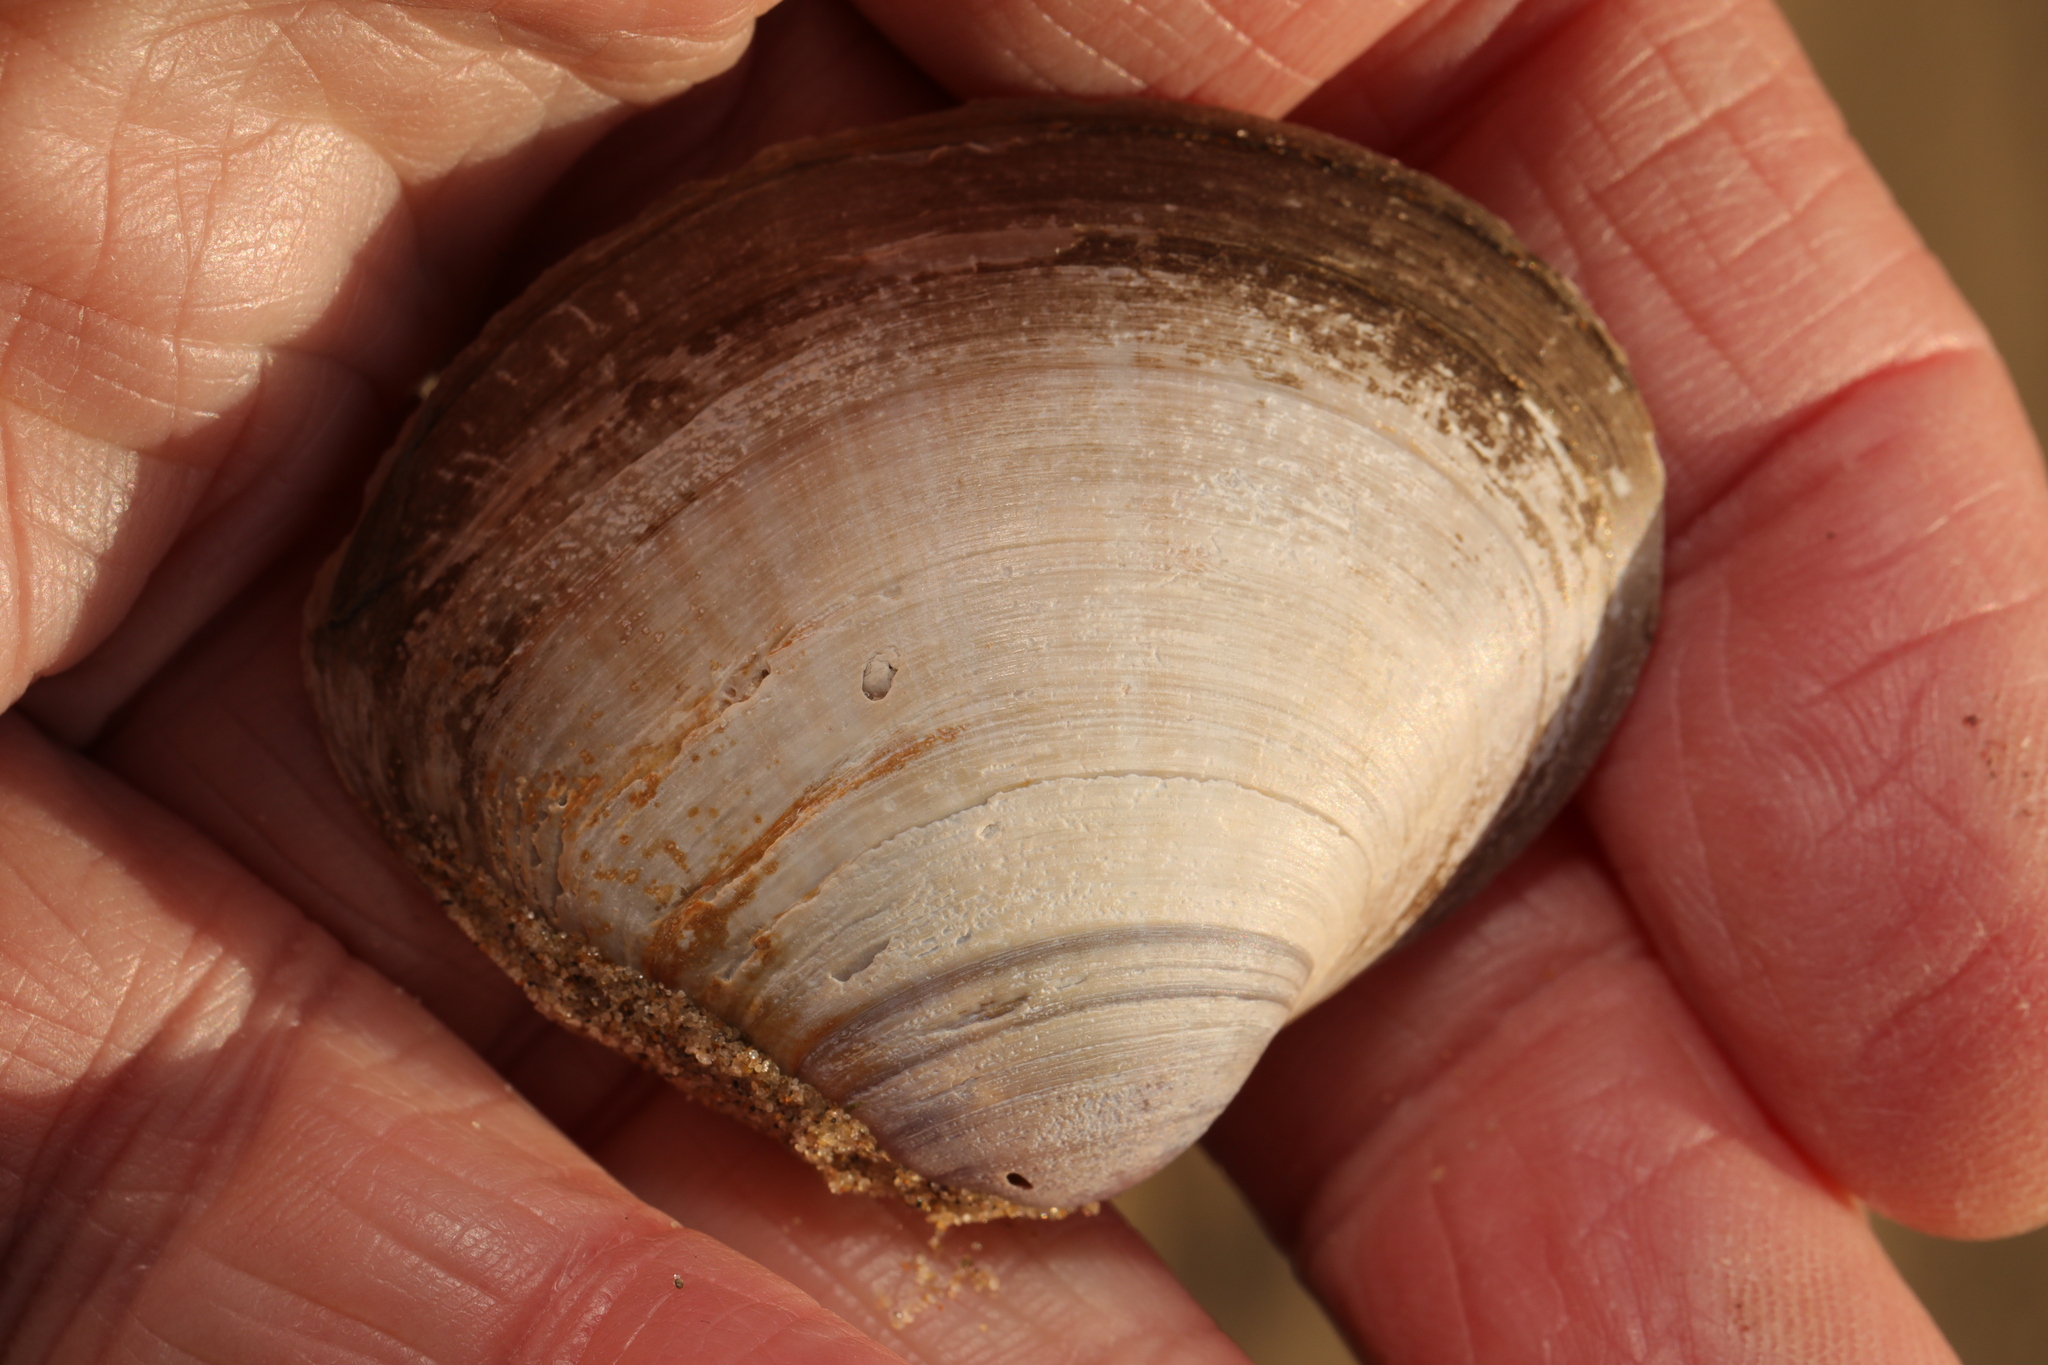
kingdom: Animalia
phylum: Mollusca
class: Bivalvia
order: Venerida
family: Mactridae
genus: Mactra
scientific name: Mactra stultorum
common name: Rayed trough shell
